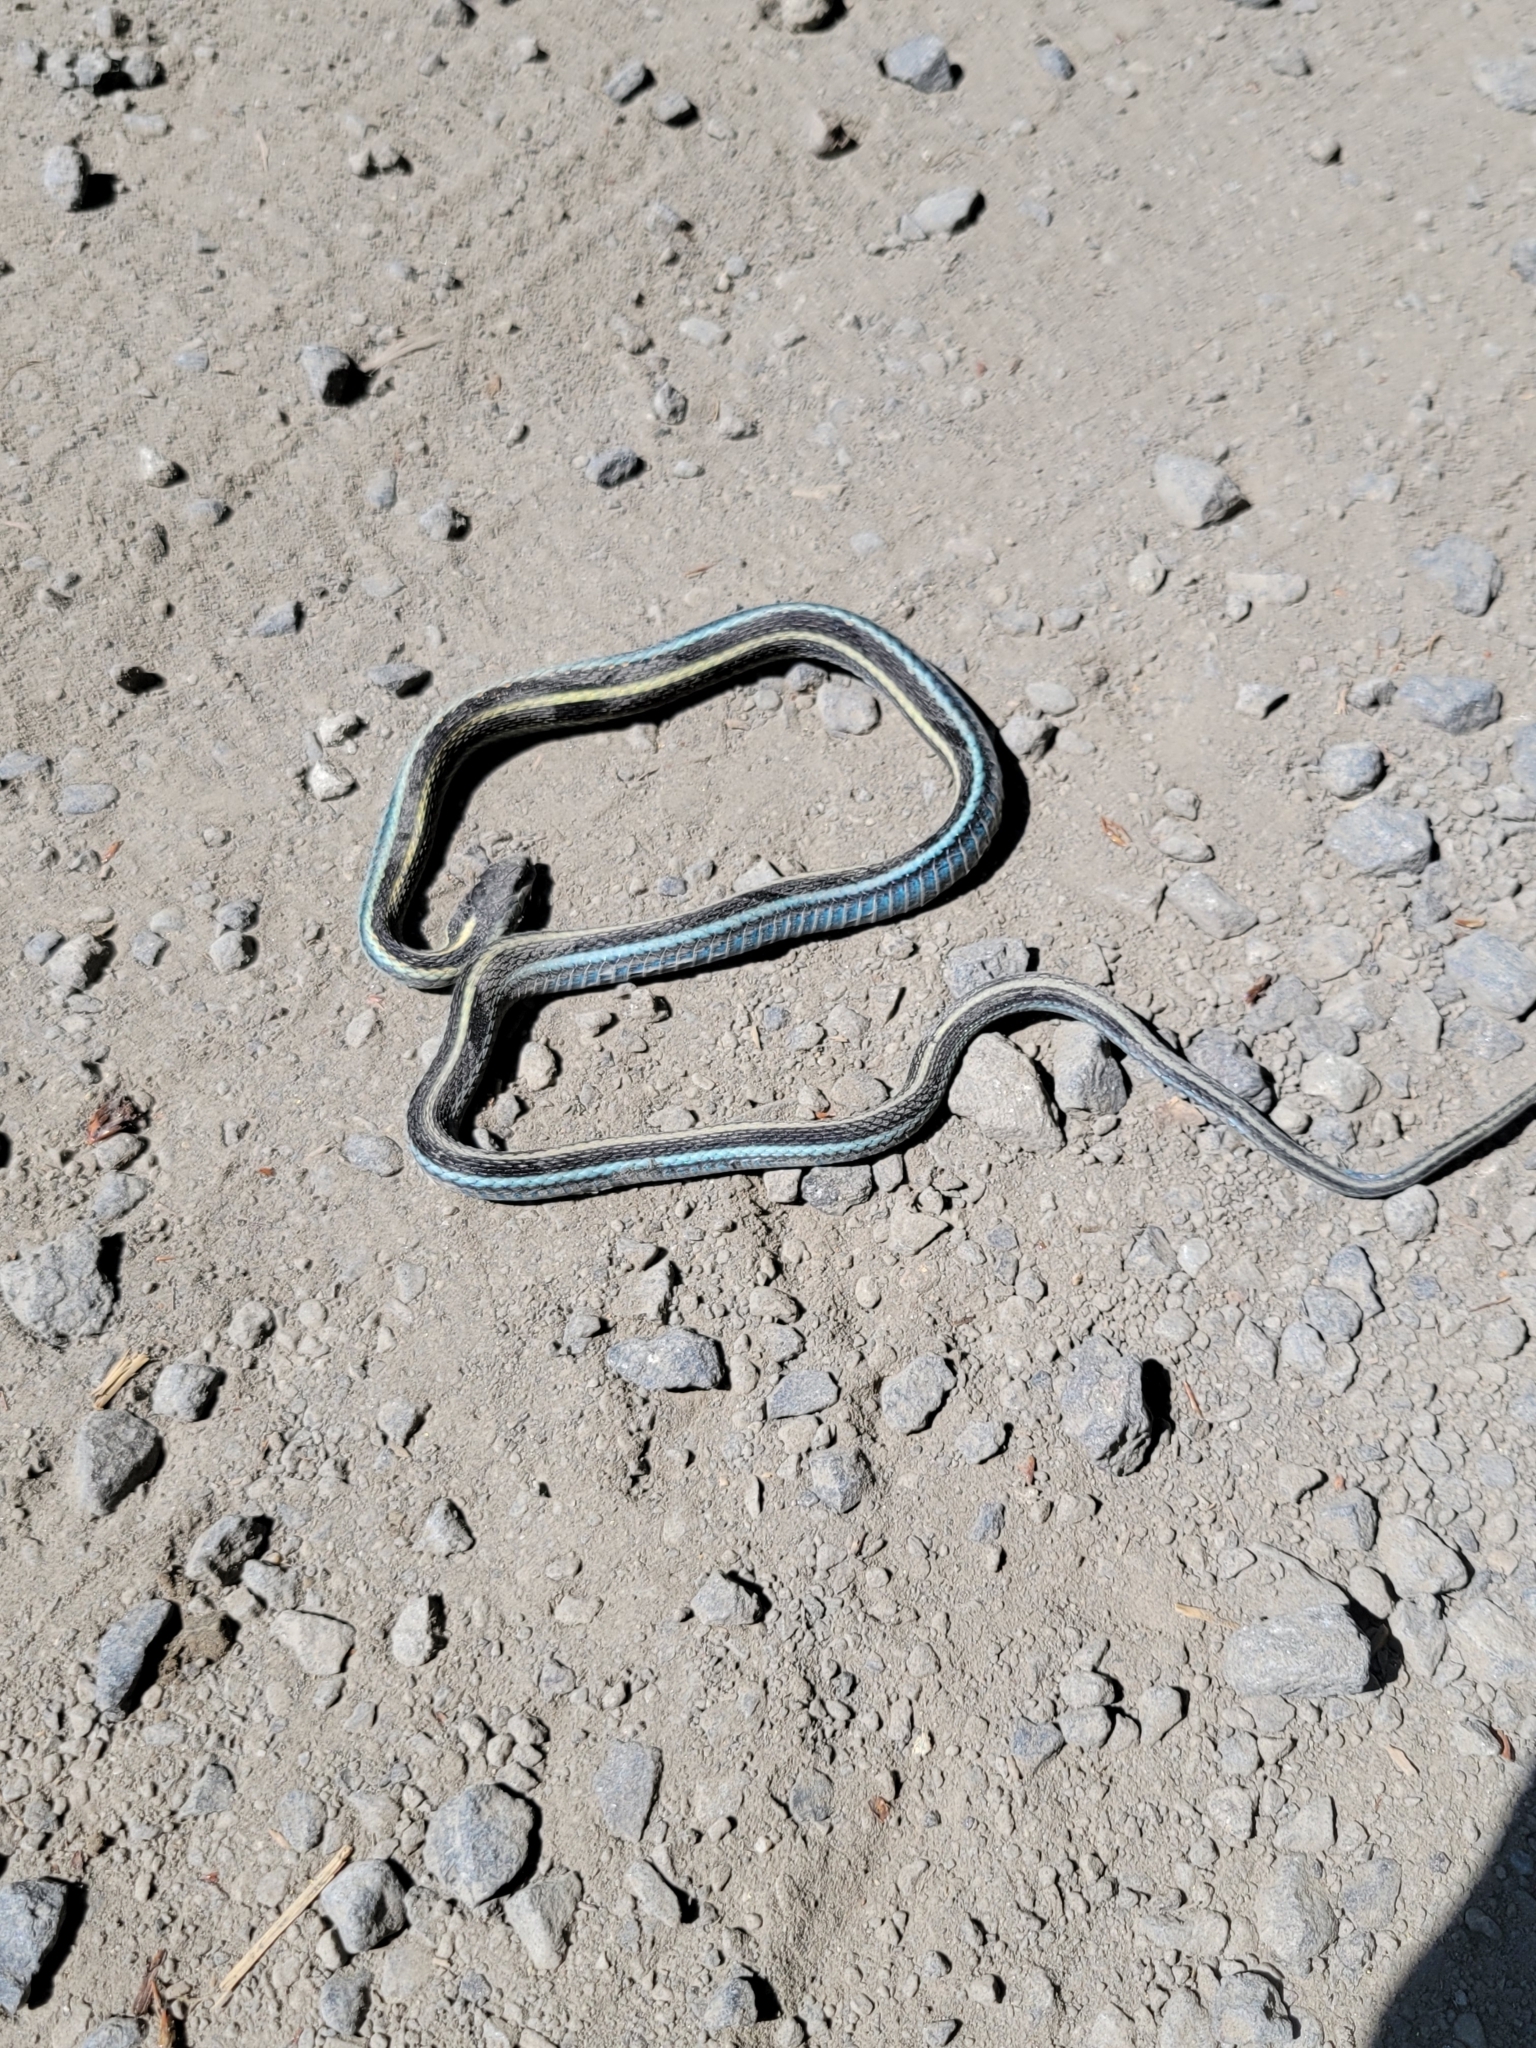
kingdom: Animalia
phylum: Chordata
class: Squamata
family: Colubridae
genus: Thamnophis
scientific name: Thamnophis sirtalis
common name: Common garter snake
